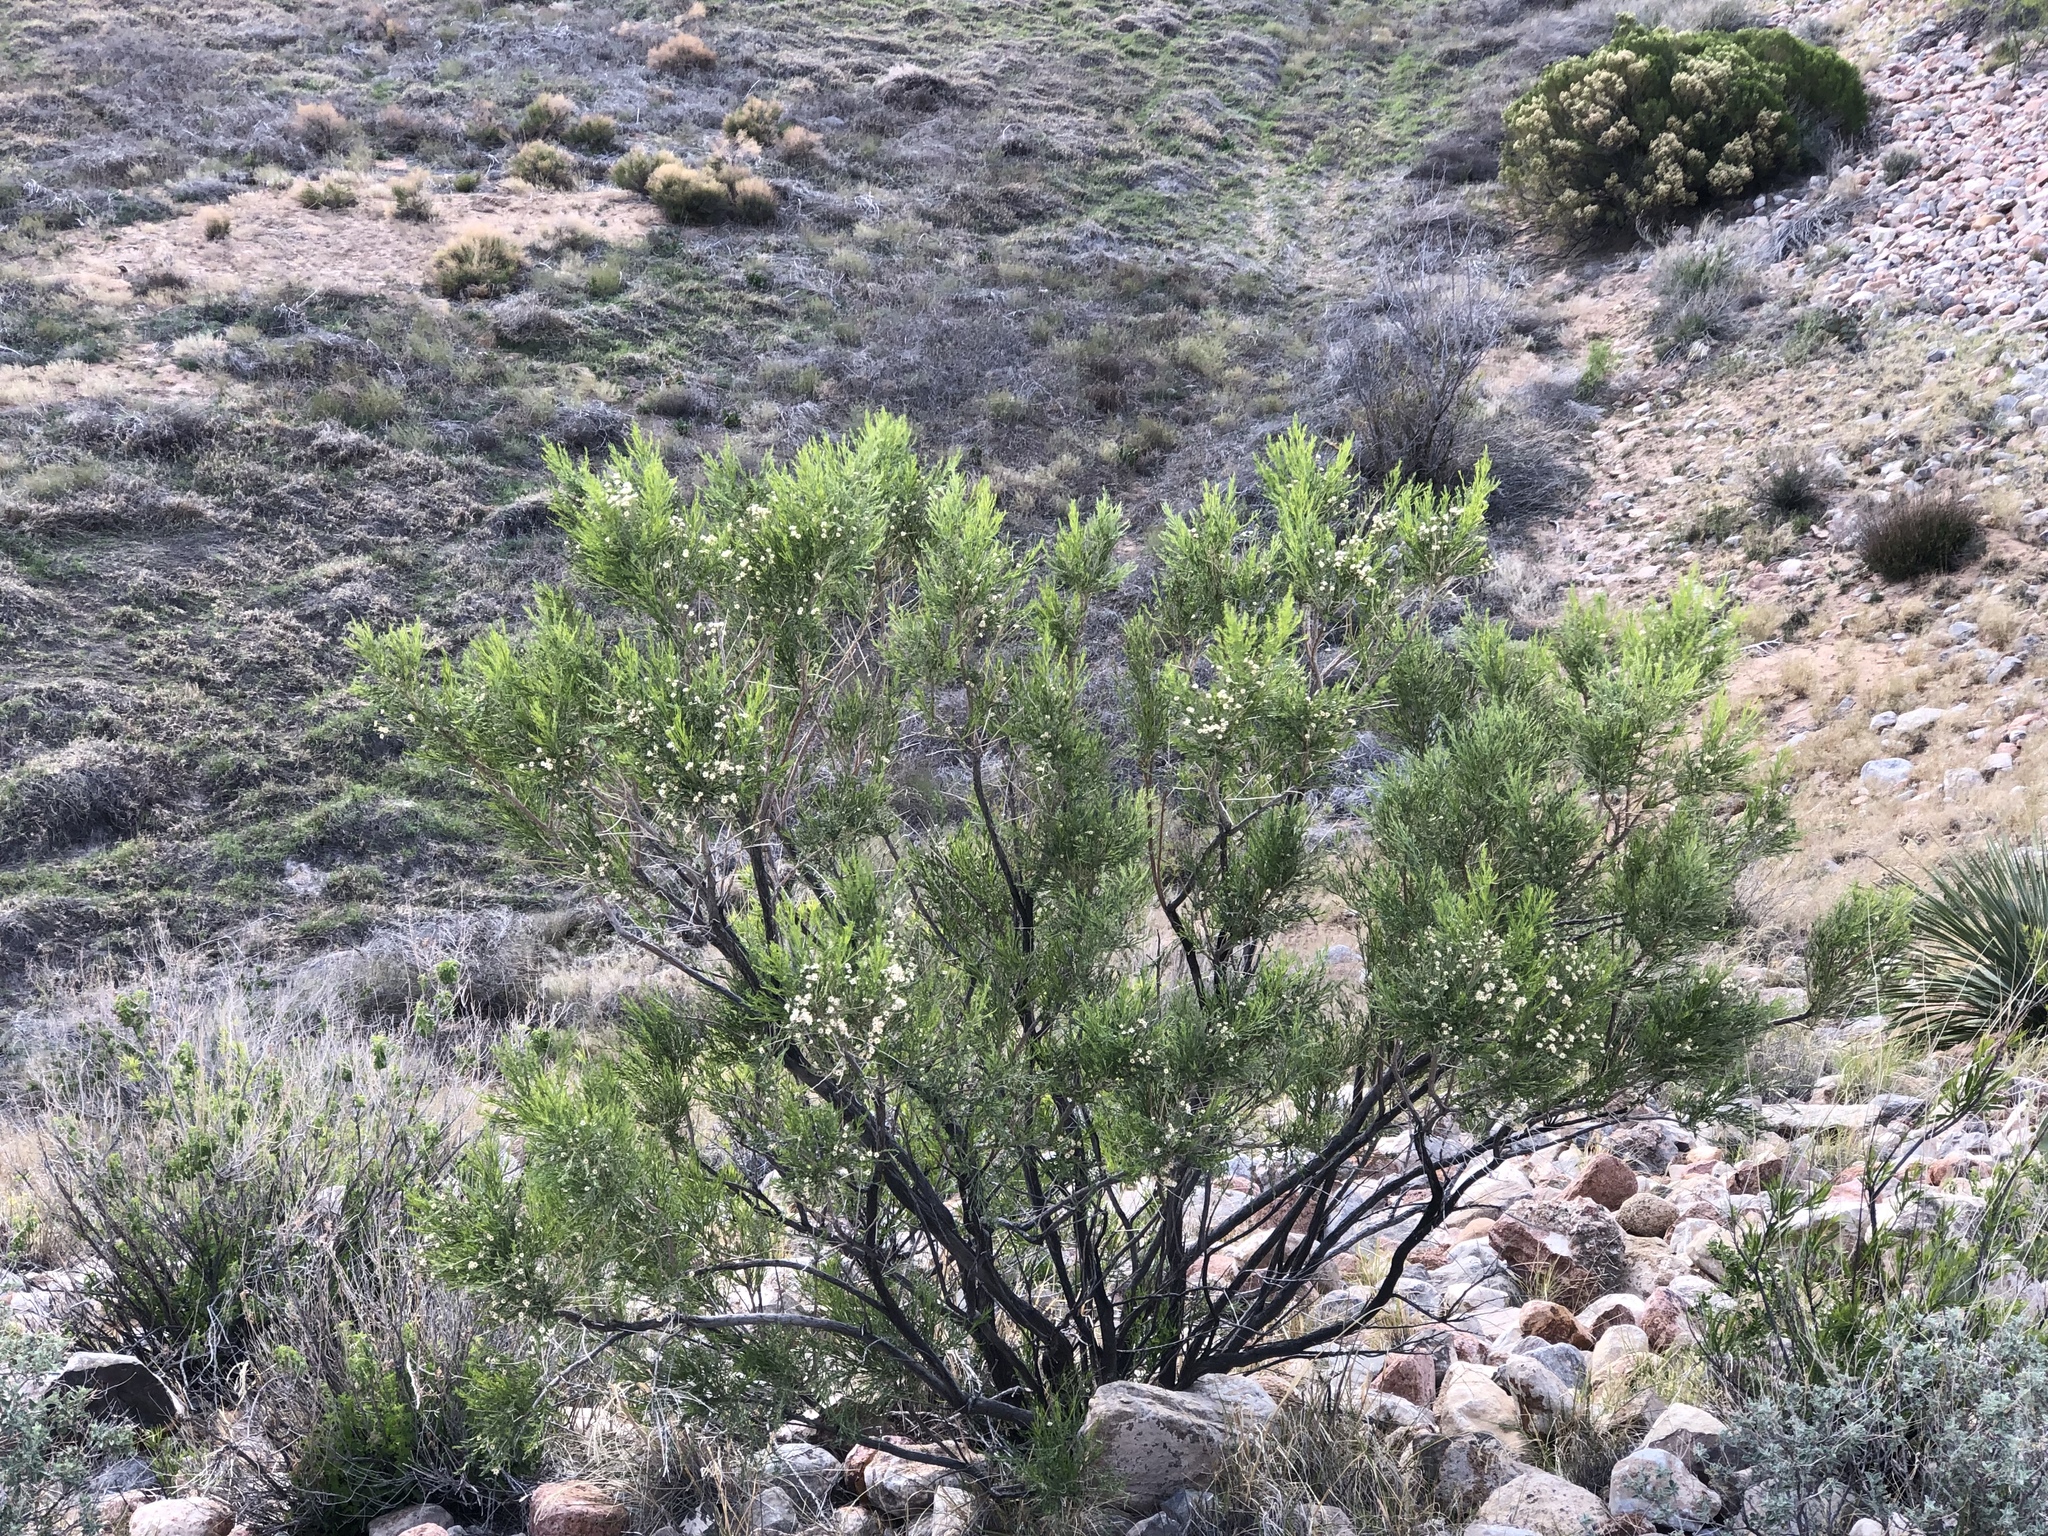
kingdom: Plantae
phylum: Tracheophyta
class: Magnoliopsida
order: Asterales
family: Asteraceae
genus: Baccharis
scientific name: Baccharis sarothroides
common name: Desert-broom
